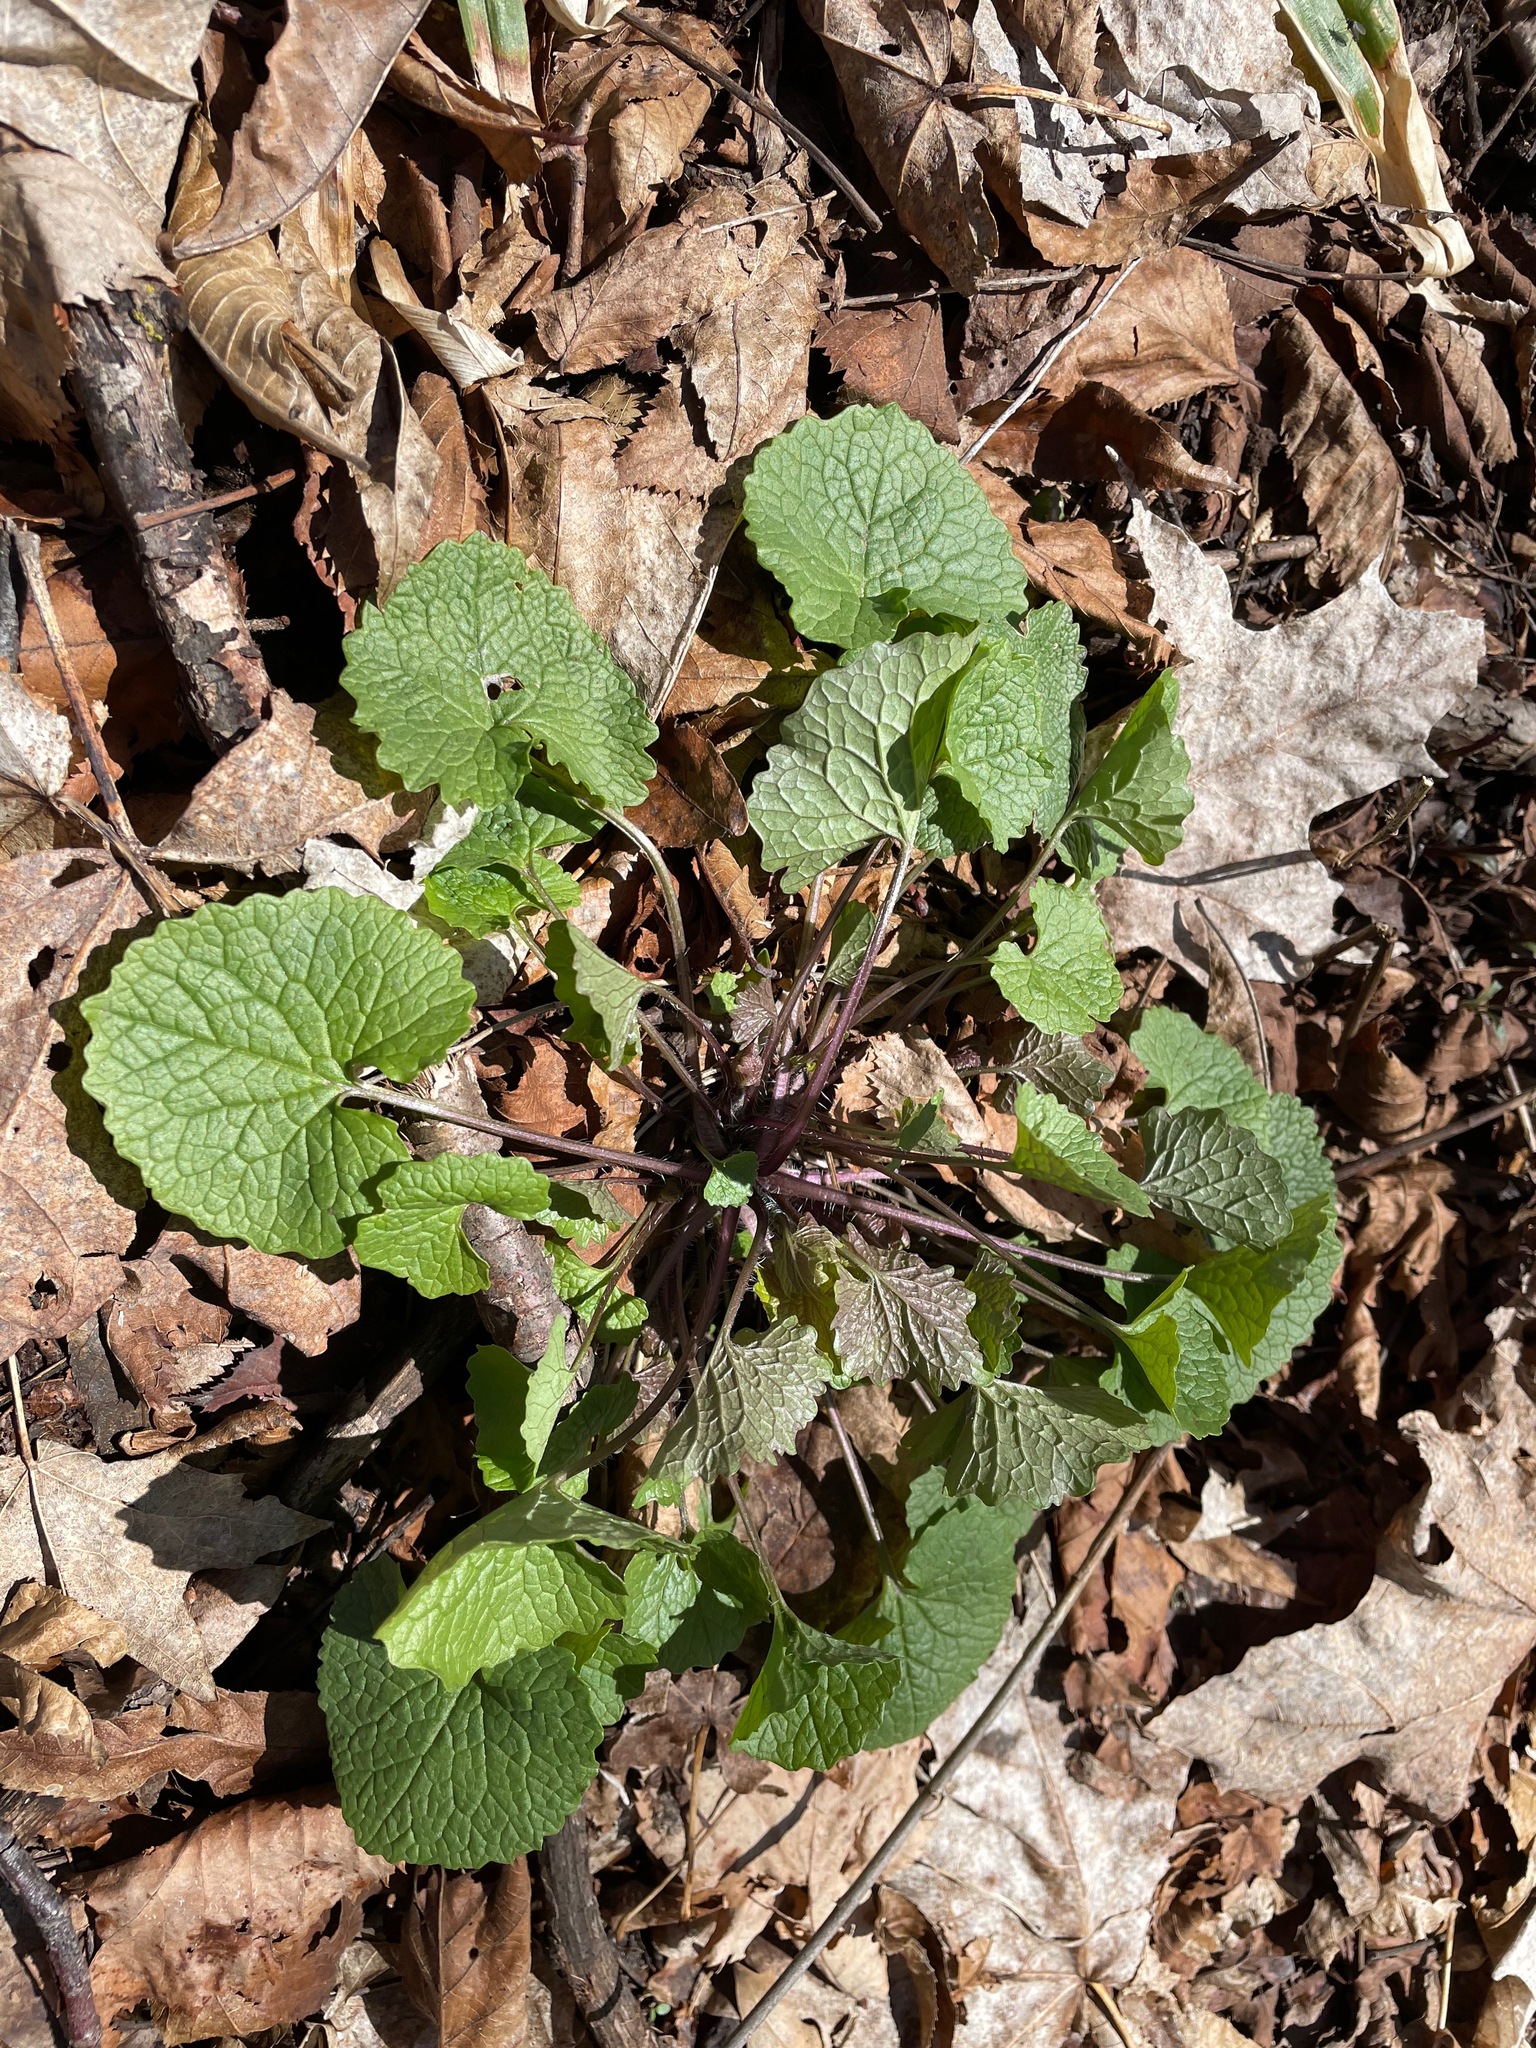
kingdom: Plantae
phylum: Tracheophyta
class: Magnoliopsida
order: Brassicales
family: Brassicaceae
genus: Alliaria
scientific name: Alliaria petiolata
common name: Garlic mustard
